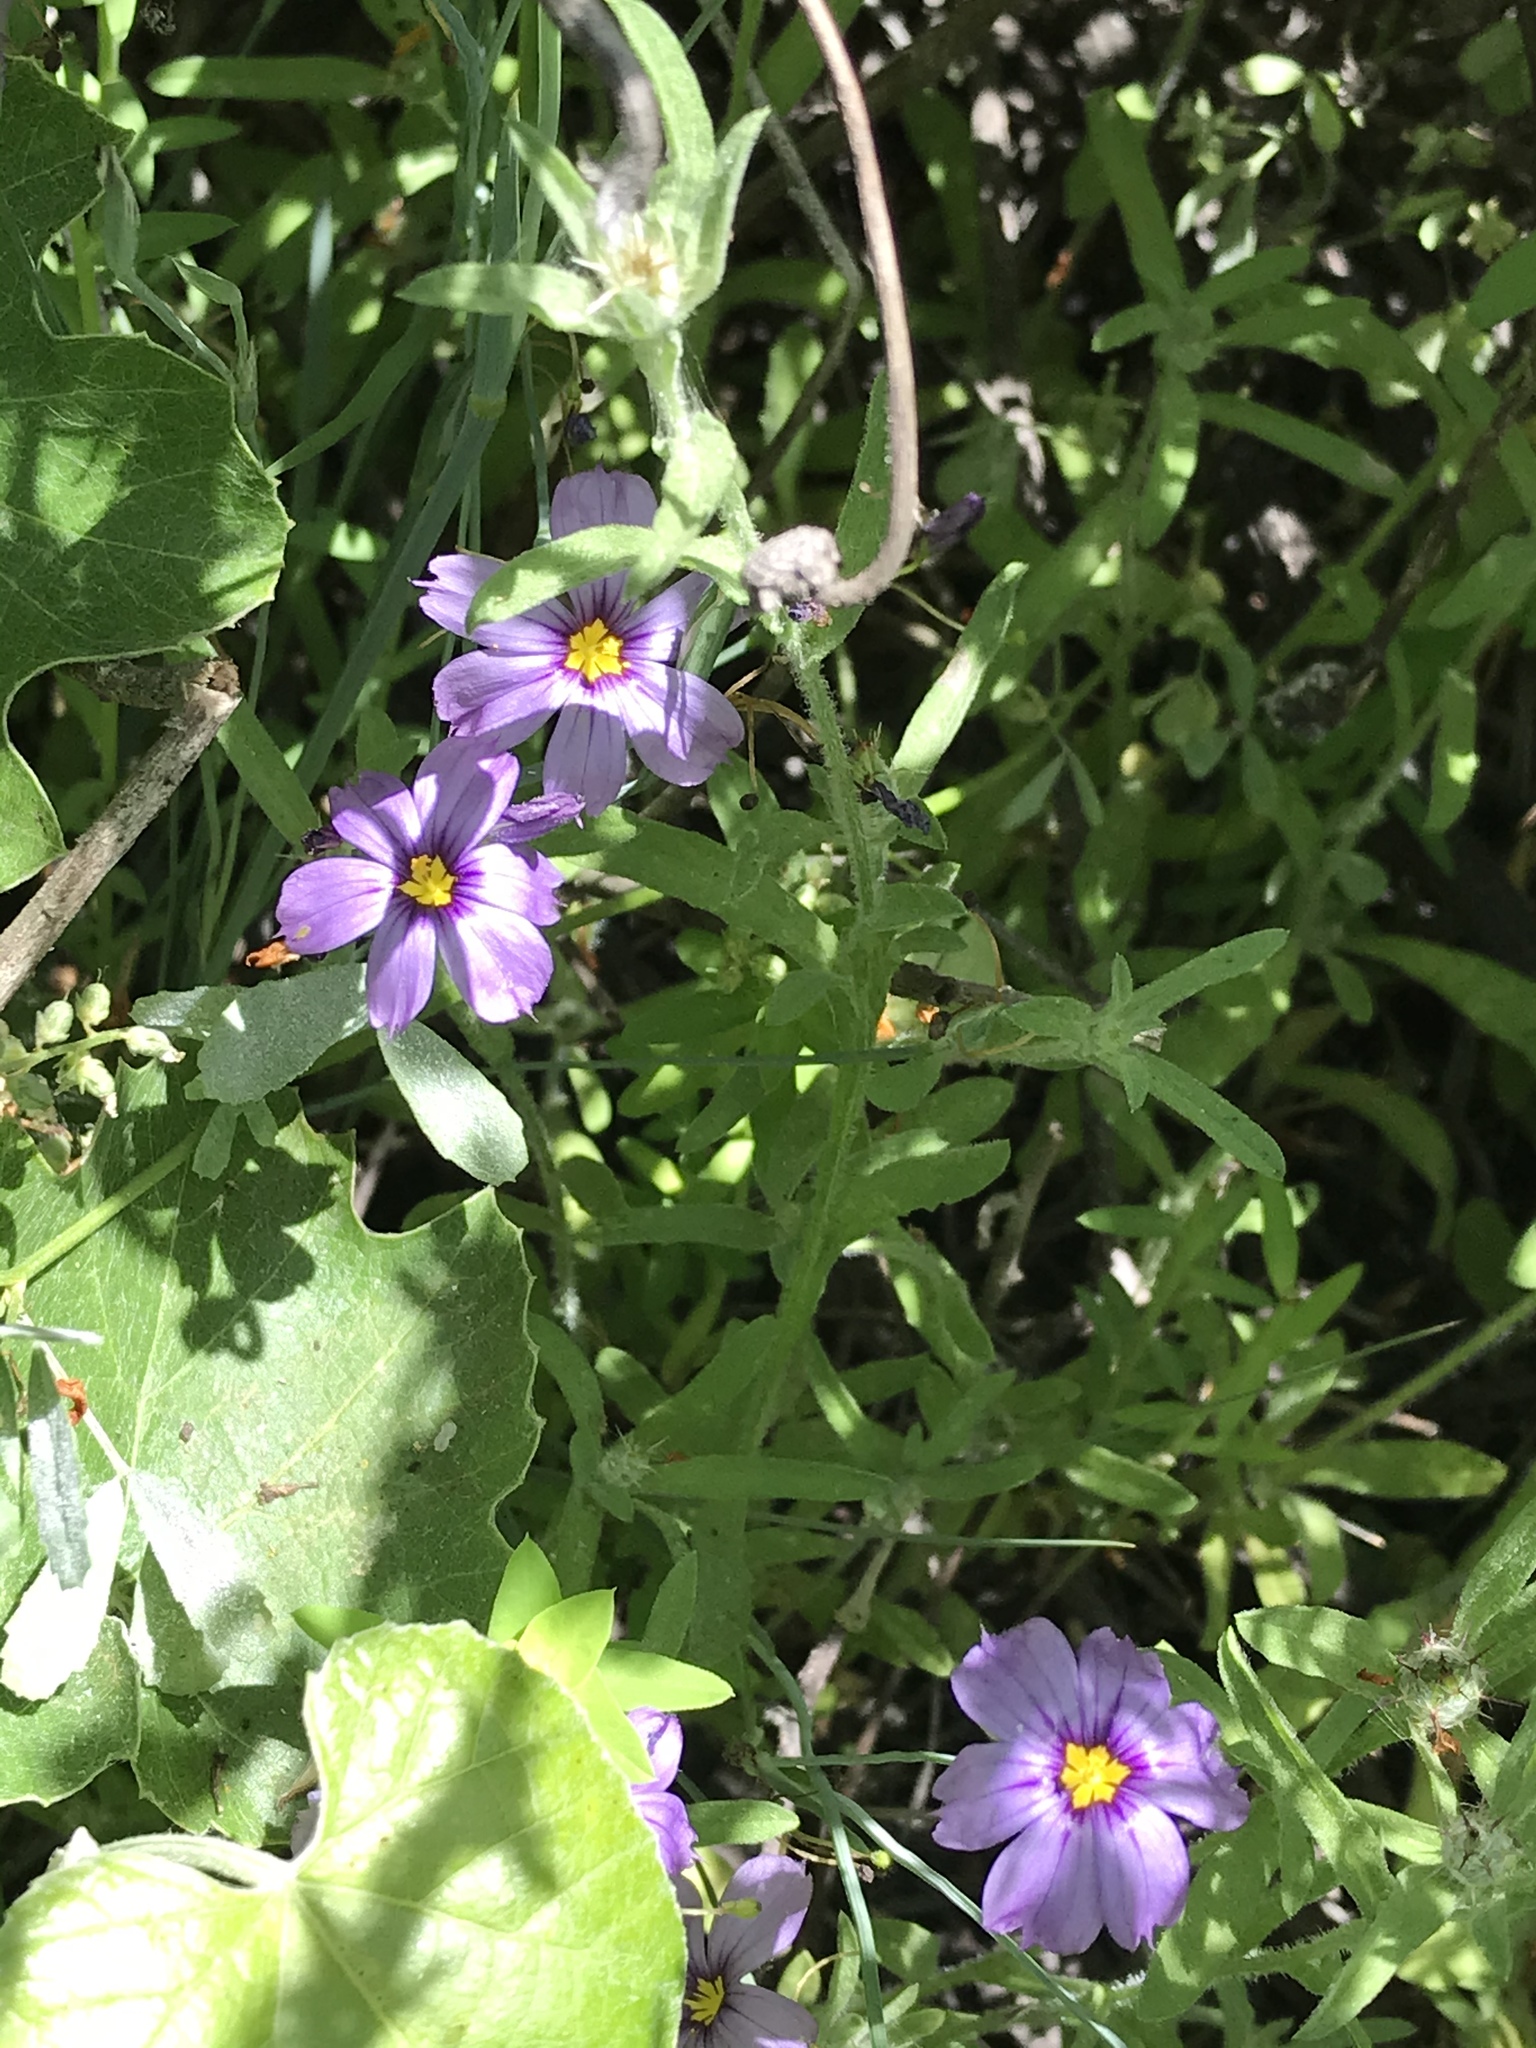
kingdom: Plantae
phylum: Tracheophyta
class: Liliopsida
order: Asparagales
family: Iridaceae
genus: Sisyrinchium
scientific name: Sisyrinchium bellum
